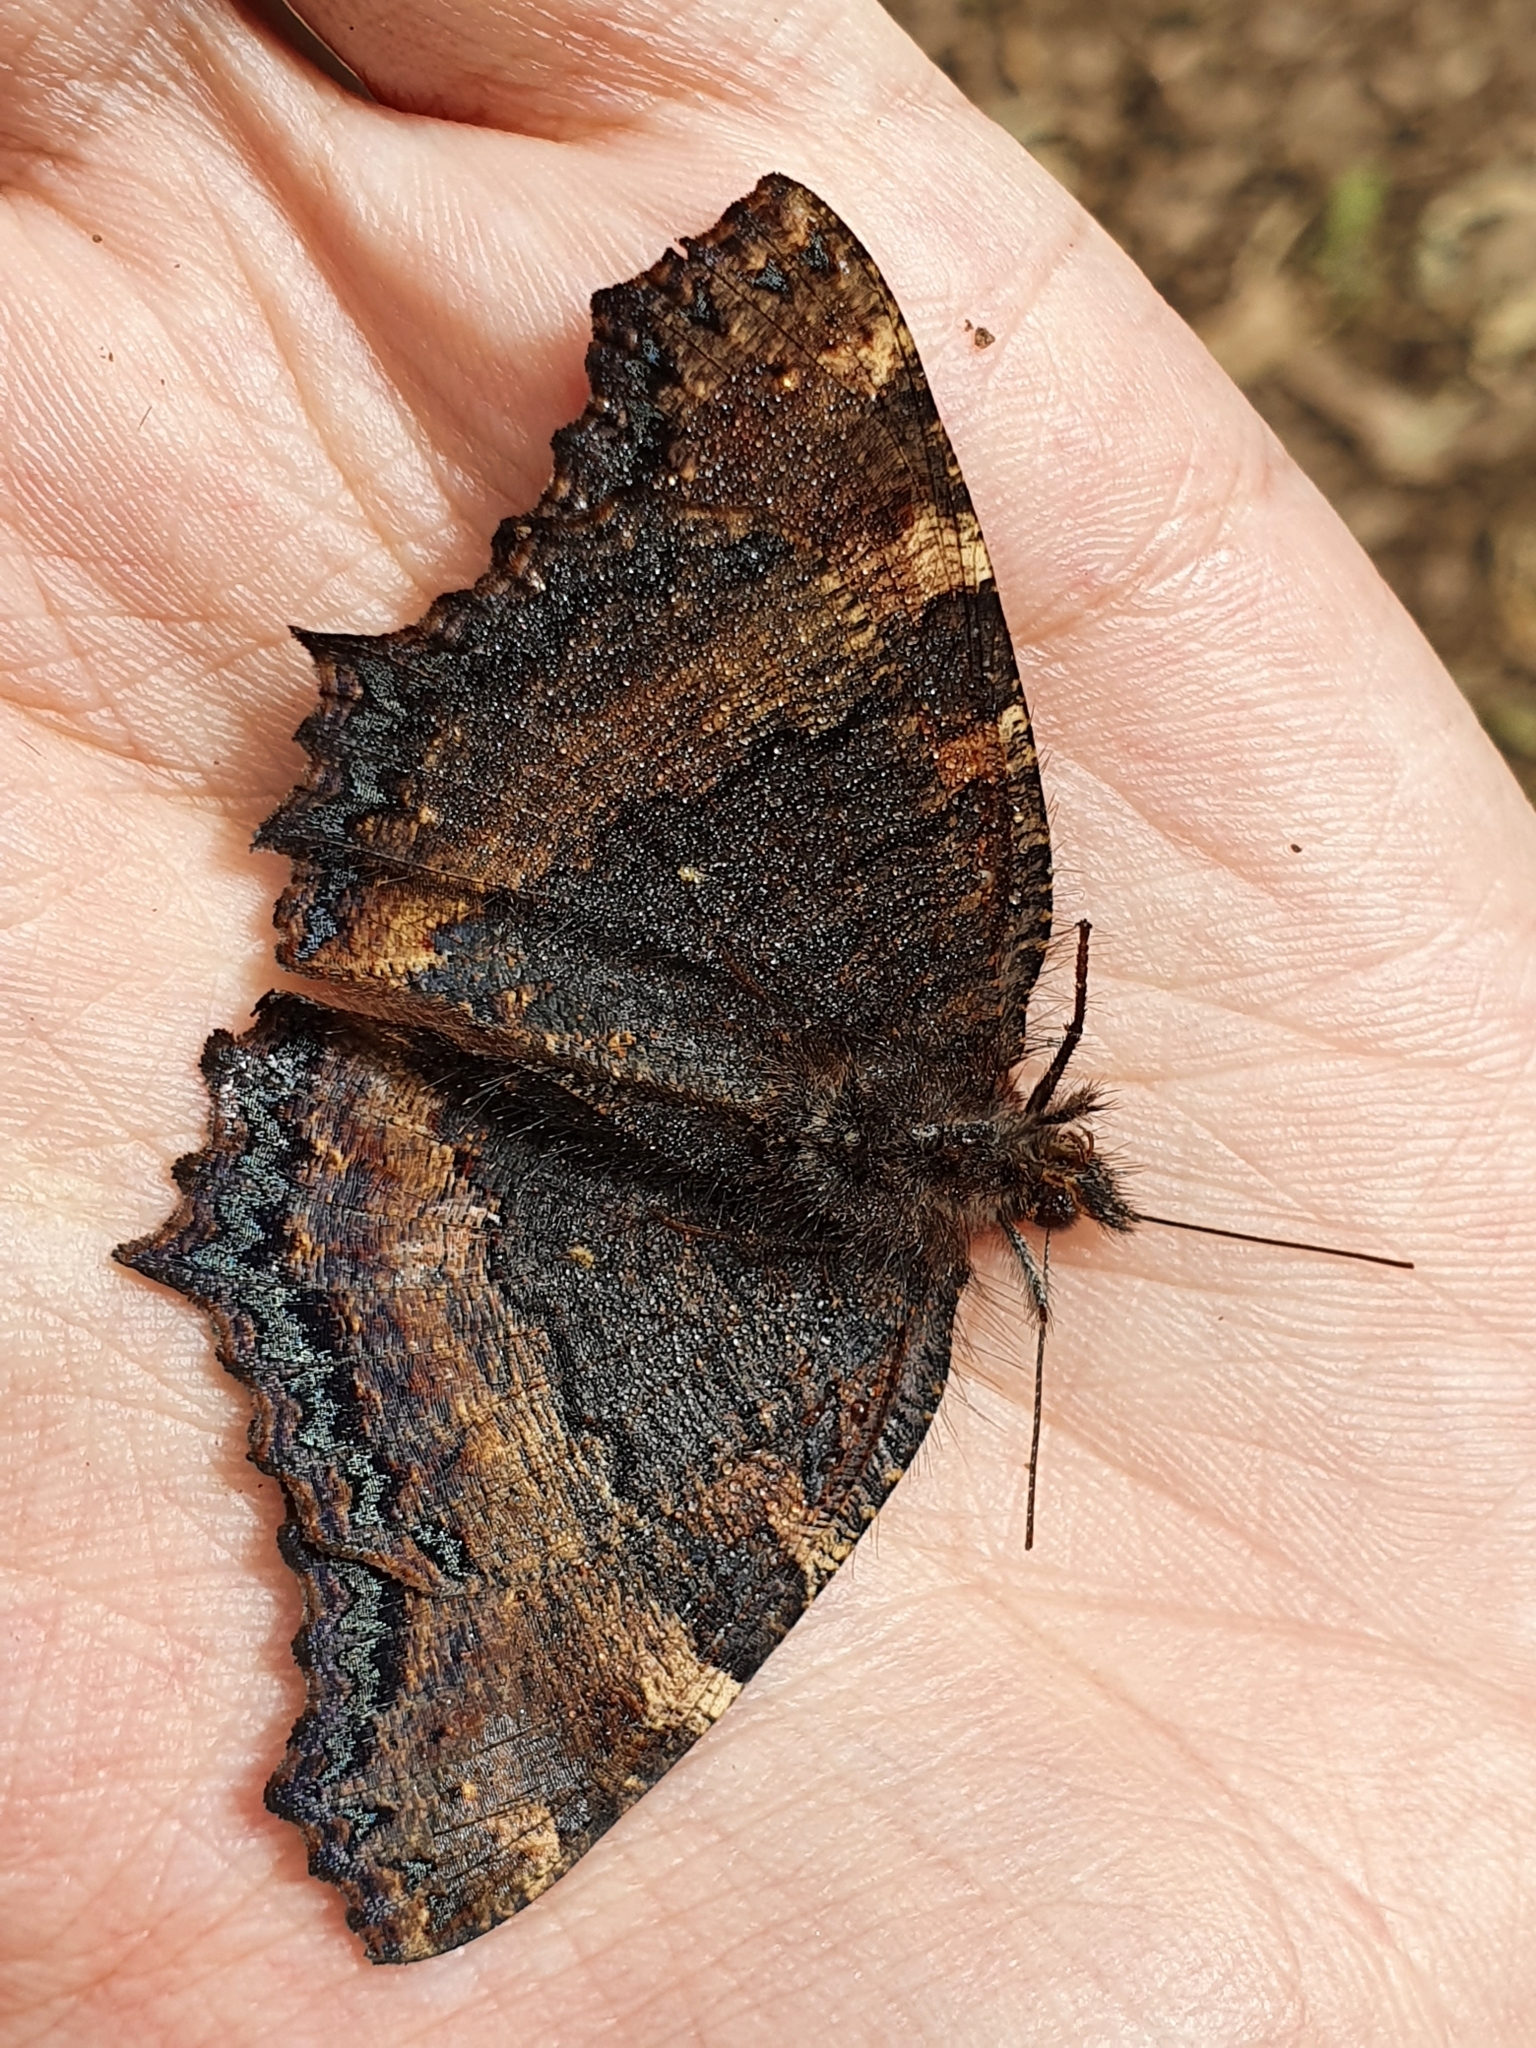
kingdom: Animalia
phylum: Arthropoda
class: Insecta
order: Lepidoptera
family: Nymphalidae
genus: Nymphalis
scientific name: Nymphalis polychloros
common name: Large tortoiseshell
